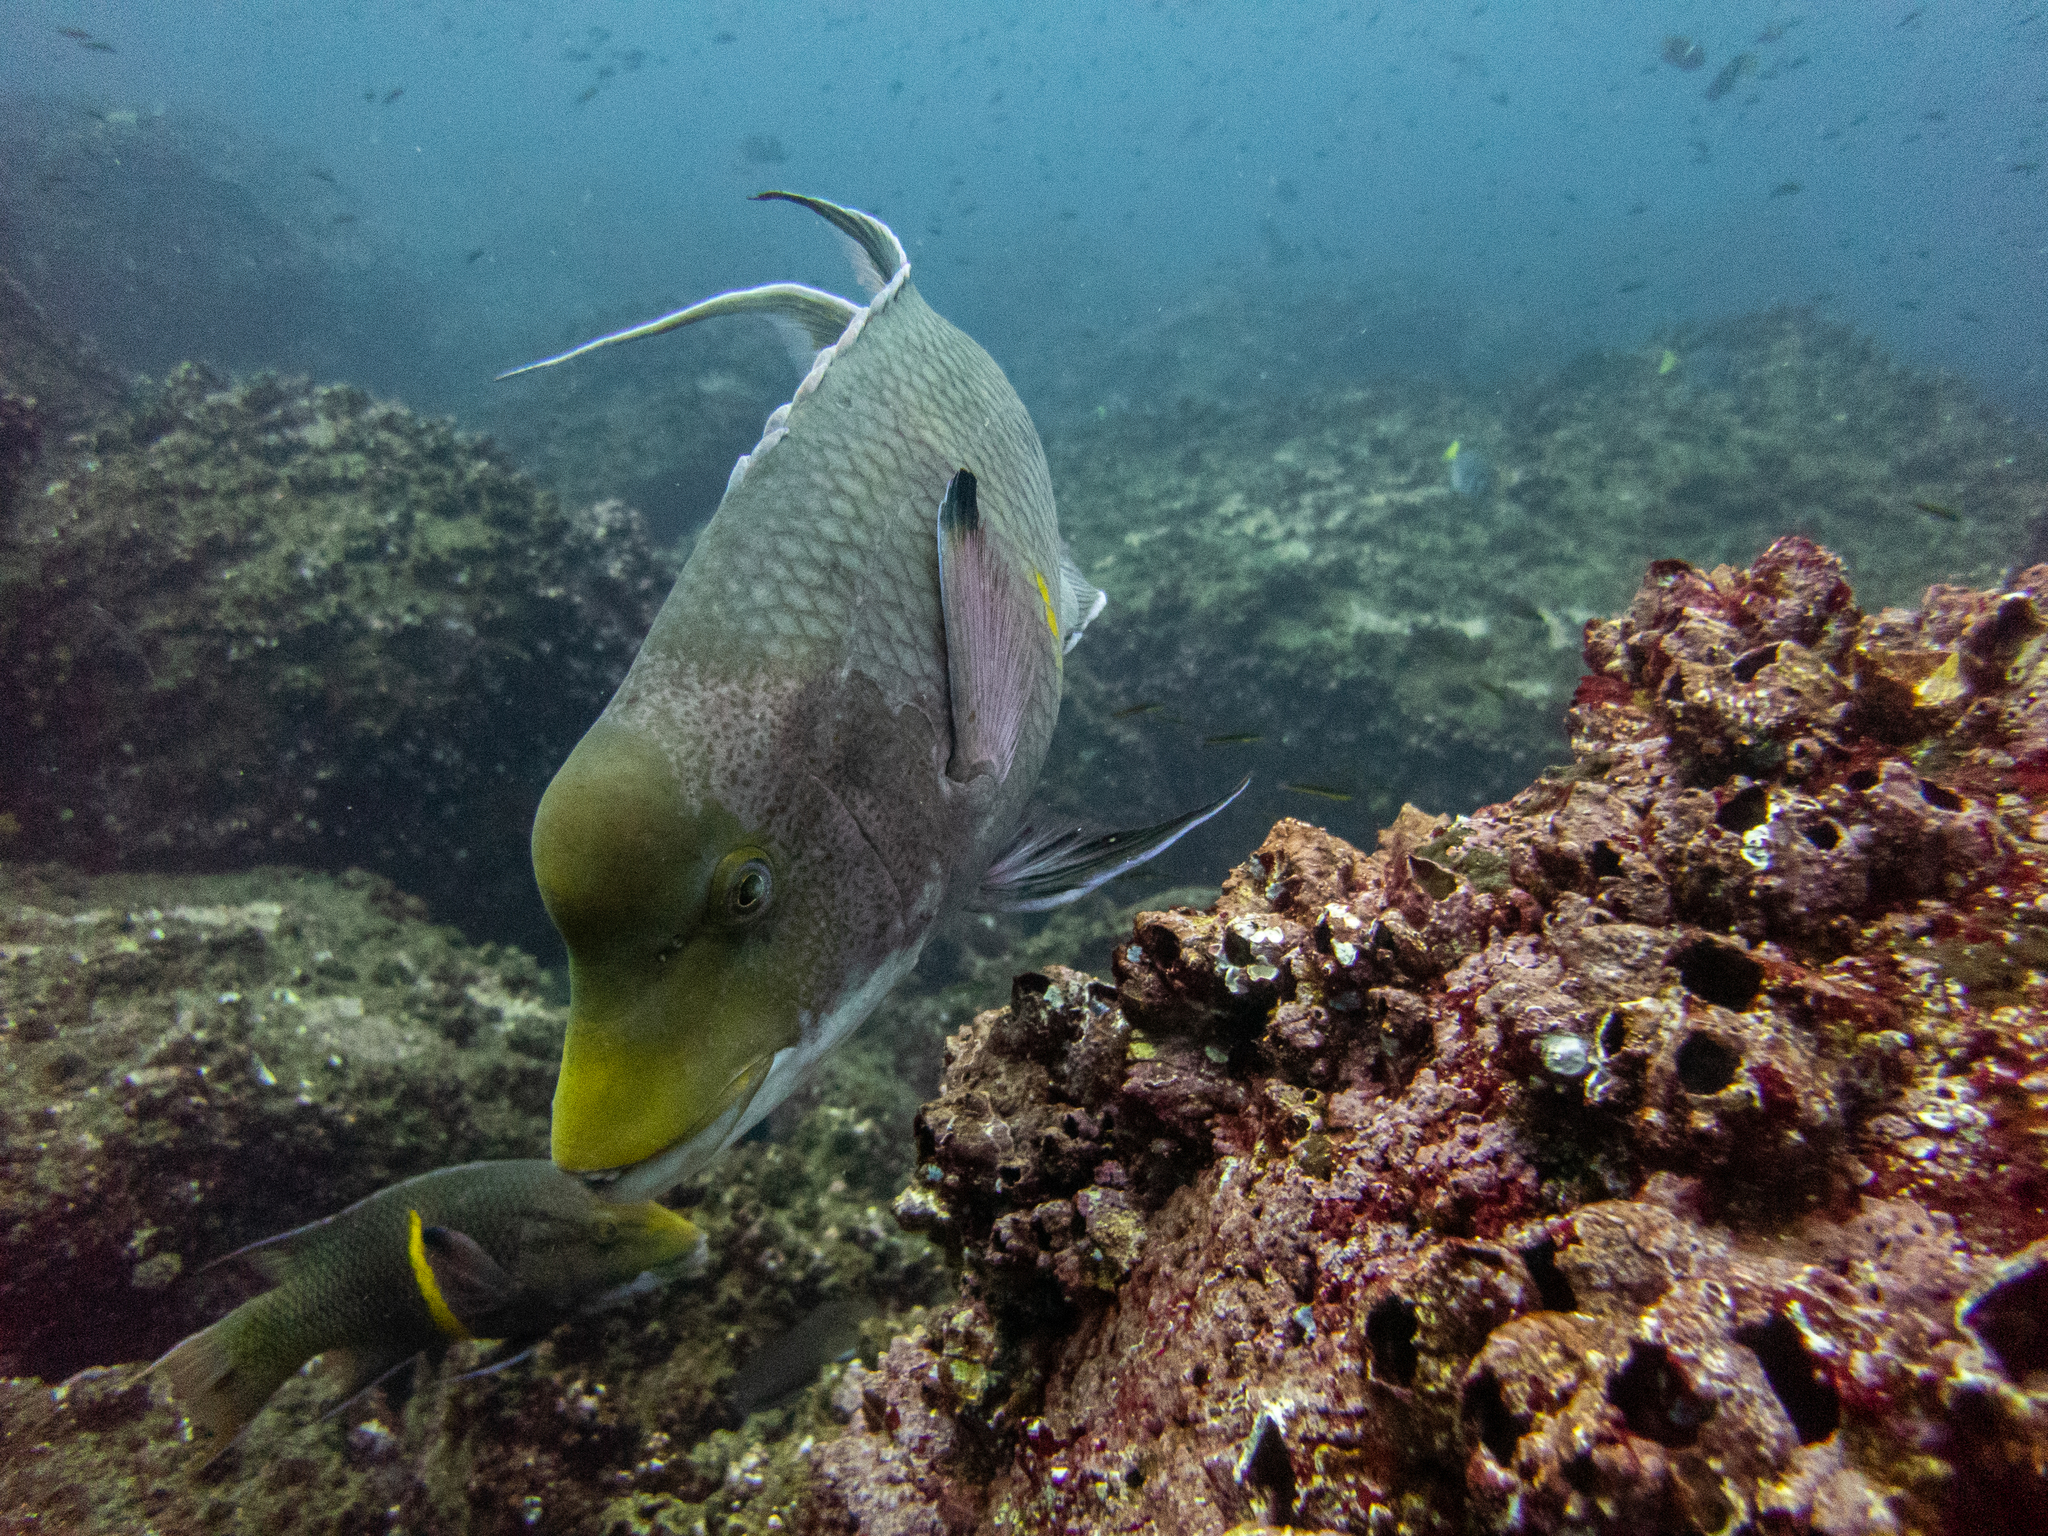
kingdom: Animalia
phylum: Chordata
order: Perciformes
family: Labridae
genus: Bodianus
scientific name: Bodianus diplotaenia
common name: Mexican hogfish
